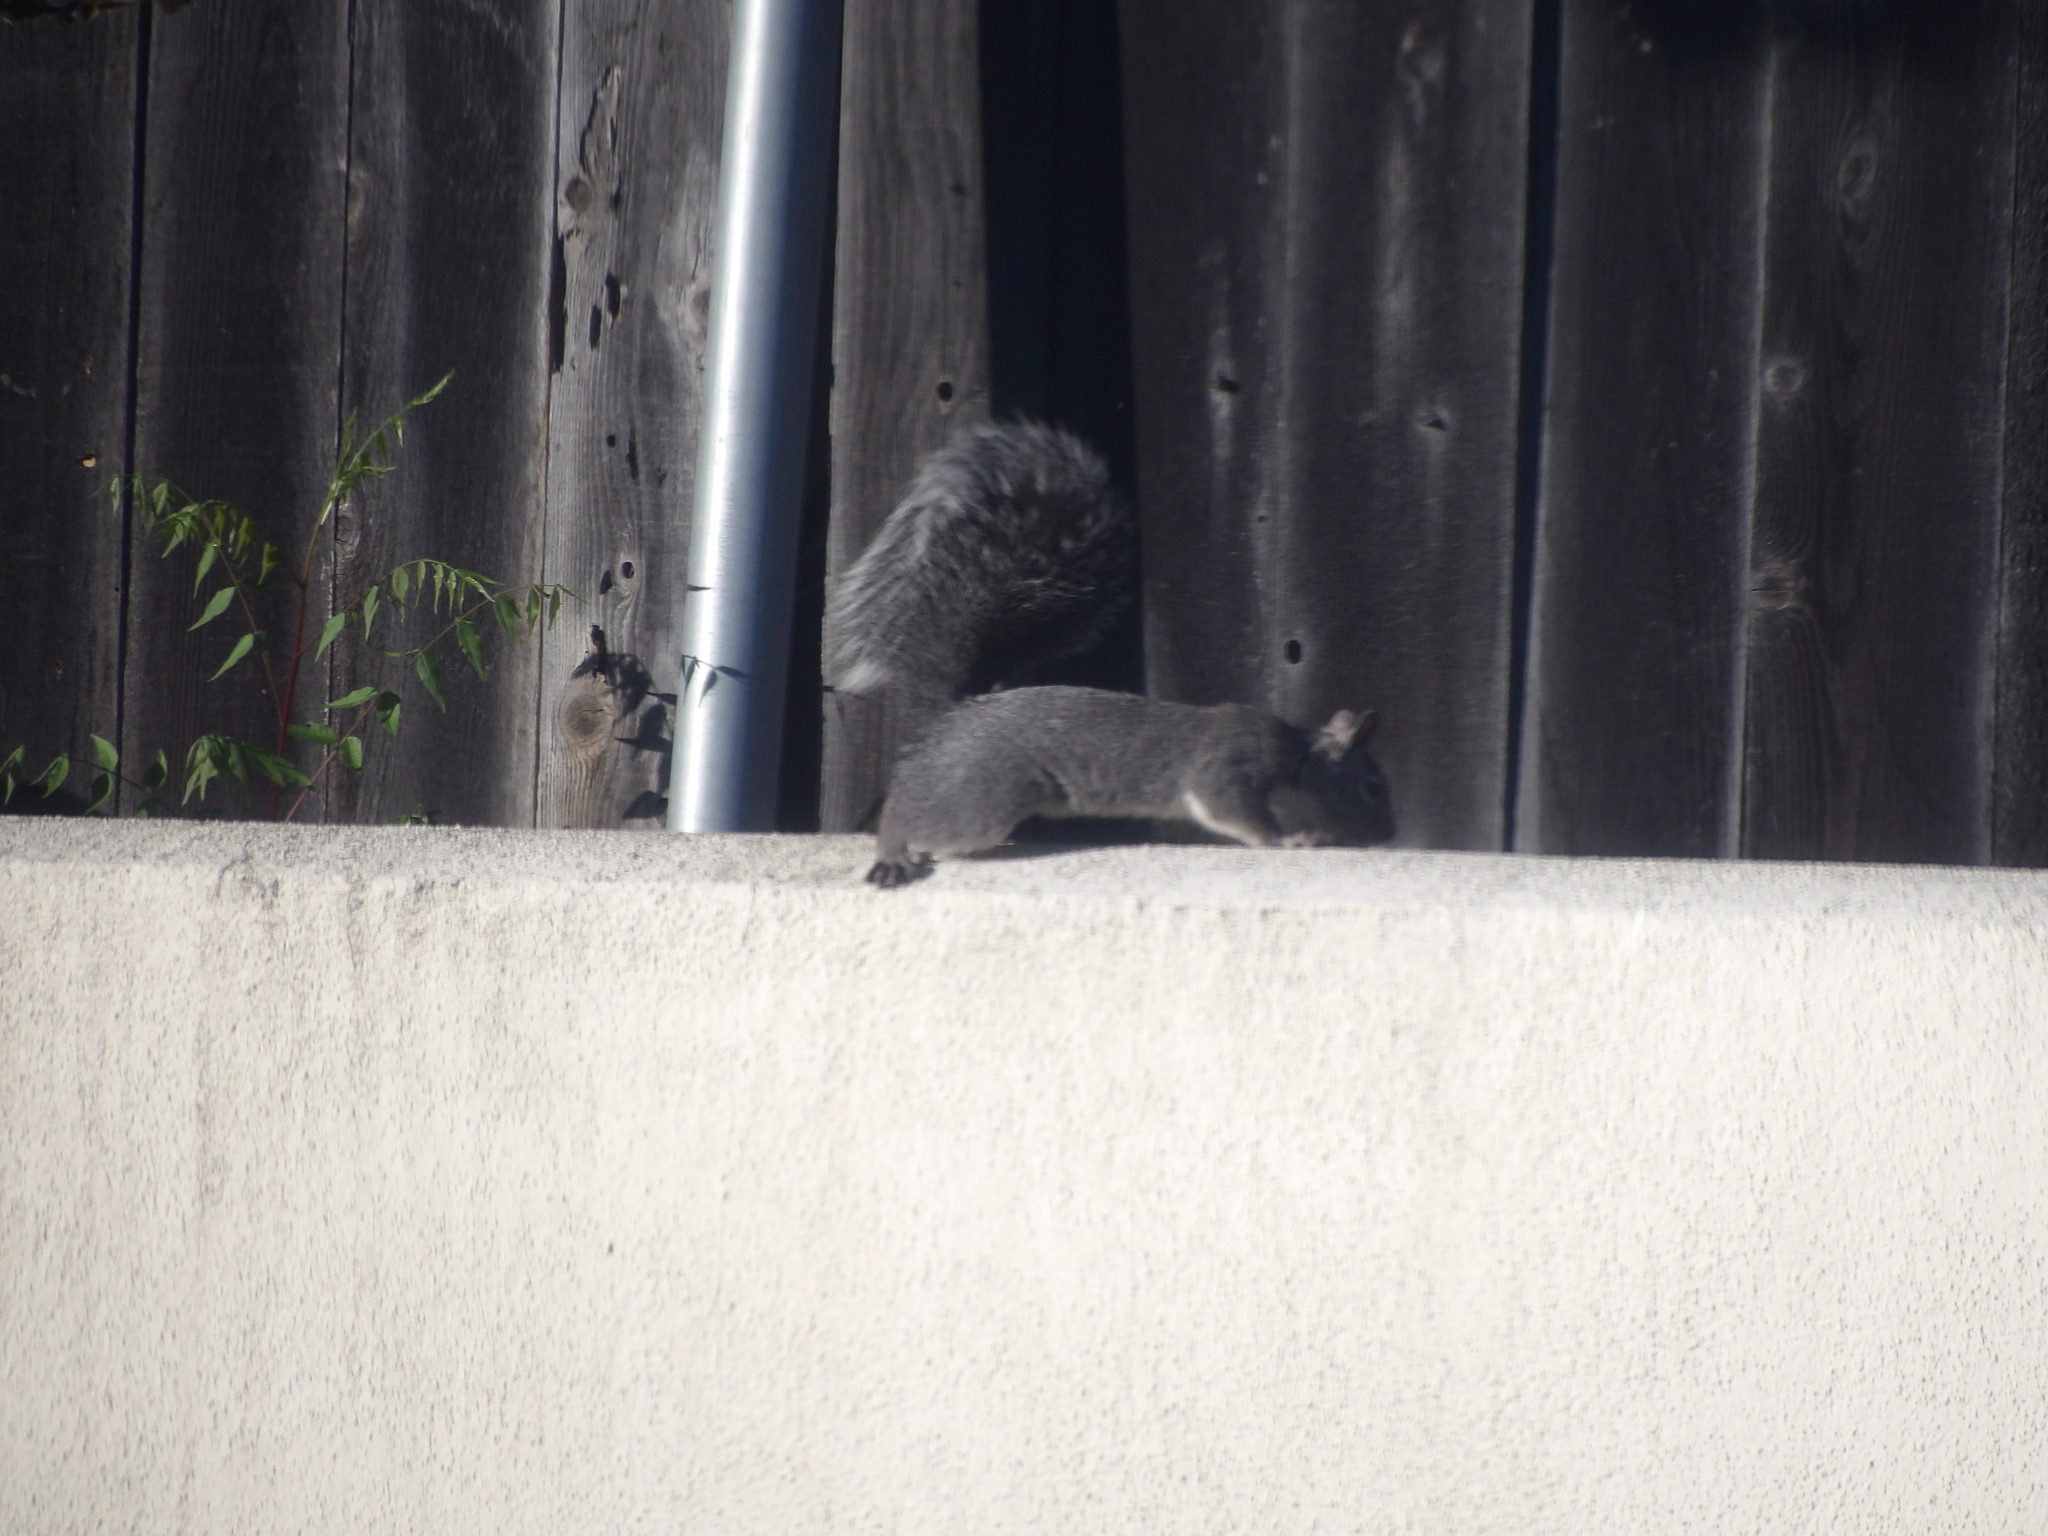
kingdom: Animalia
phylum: Chordata
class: Mammalia
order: Rodentia
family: Sciuridae
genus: Sciurus
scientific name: Sciurus griseus
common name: Western gray squirrel
